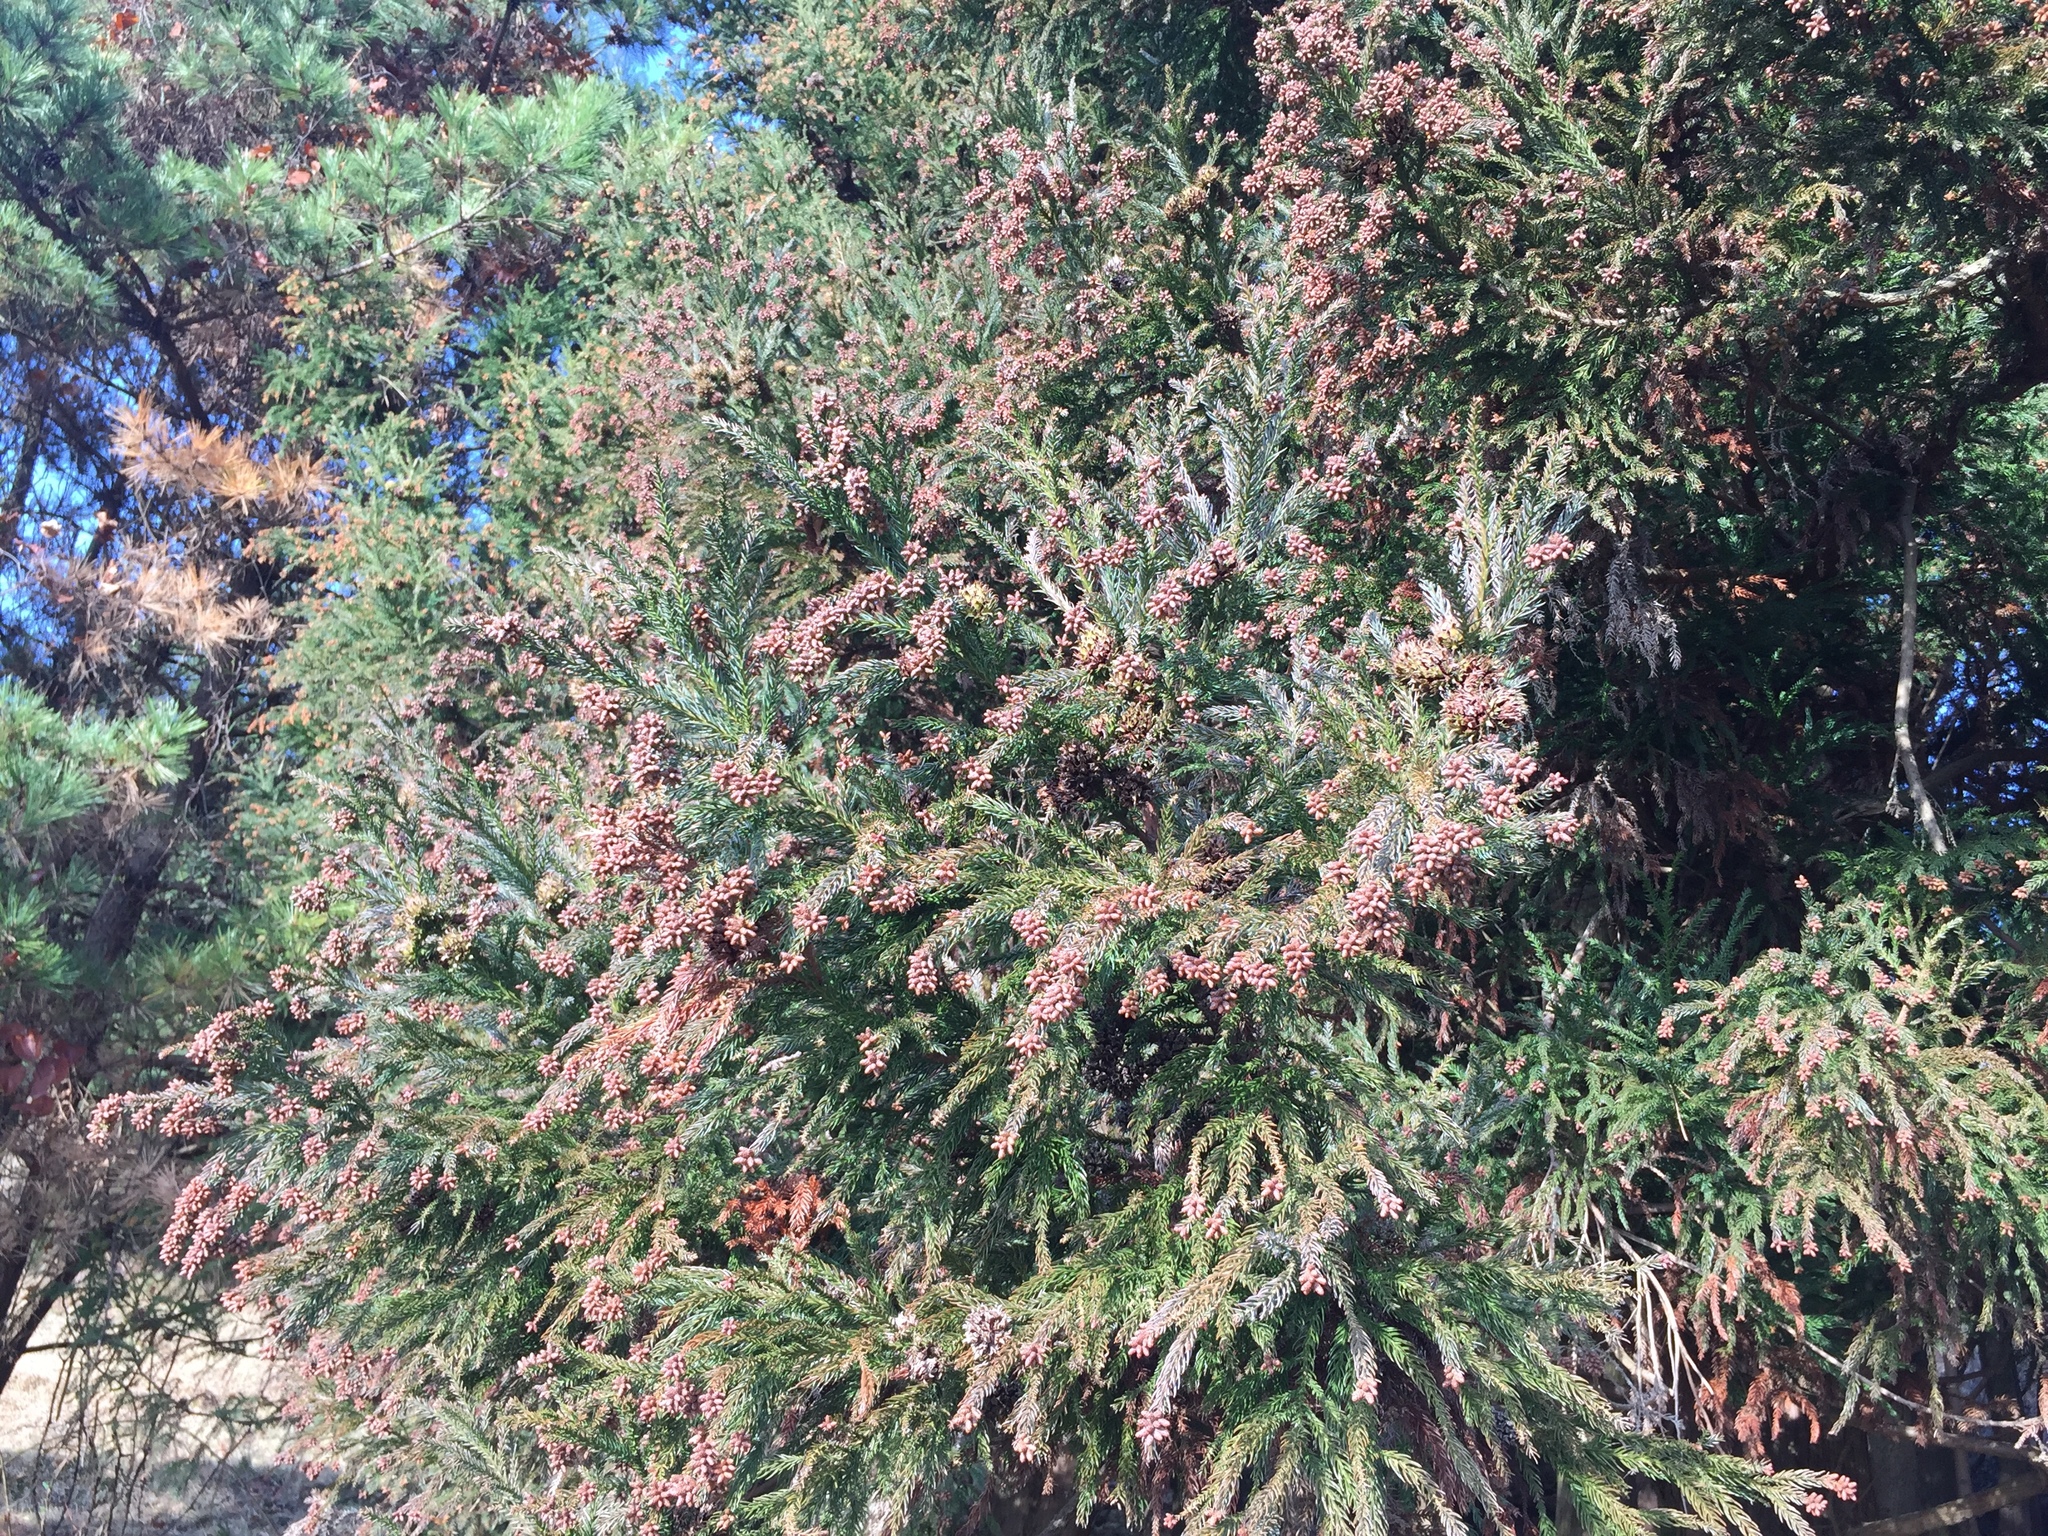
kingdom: Plantae
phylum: Tracheophyta
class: Pinopsida
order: Pinales
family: Cupressaceae
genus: Cryptomeria
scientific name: Cryptomeria japonica
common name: Japanese cedar
